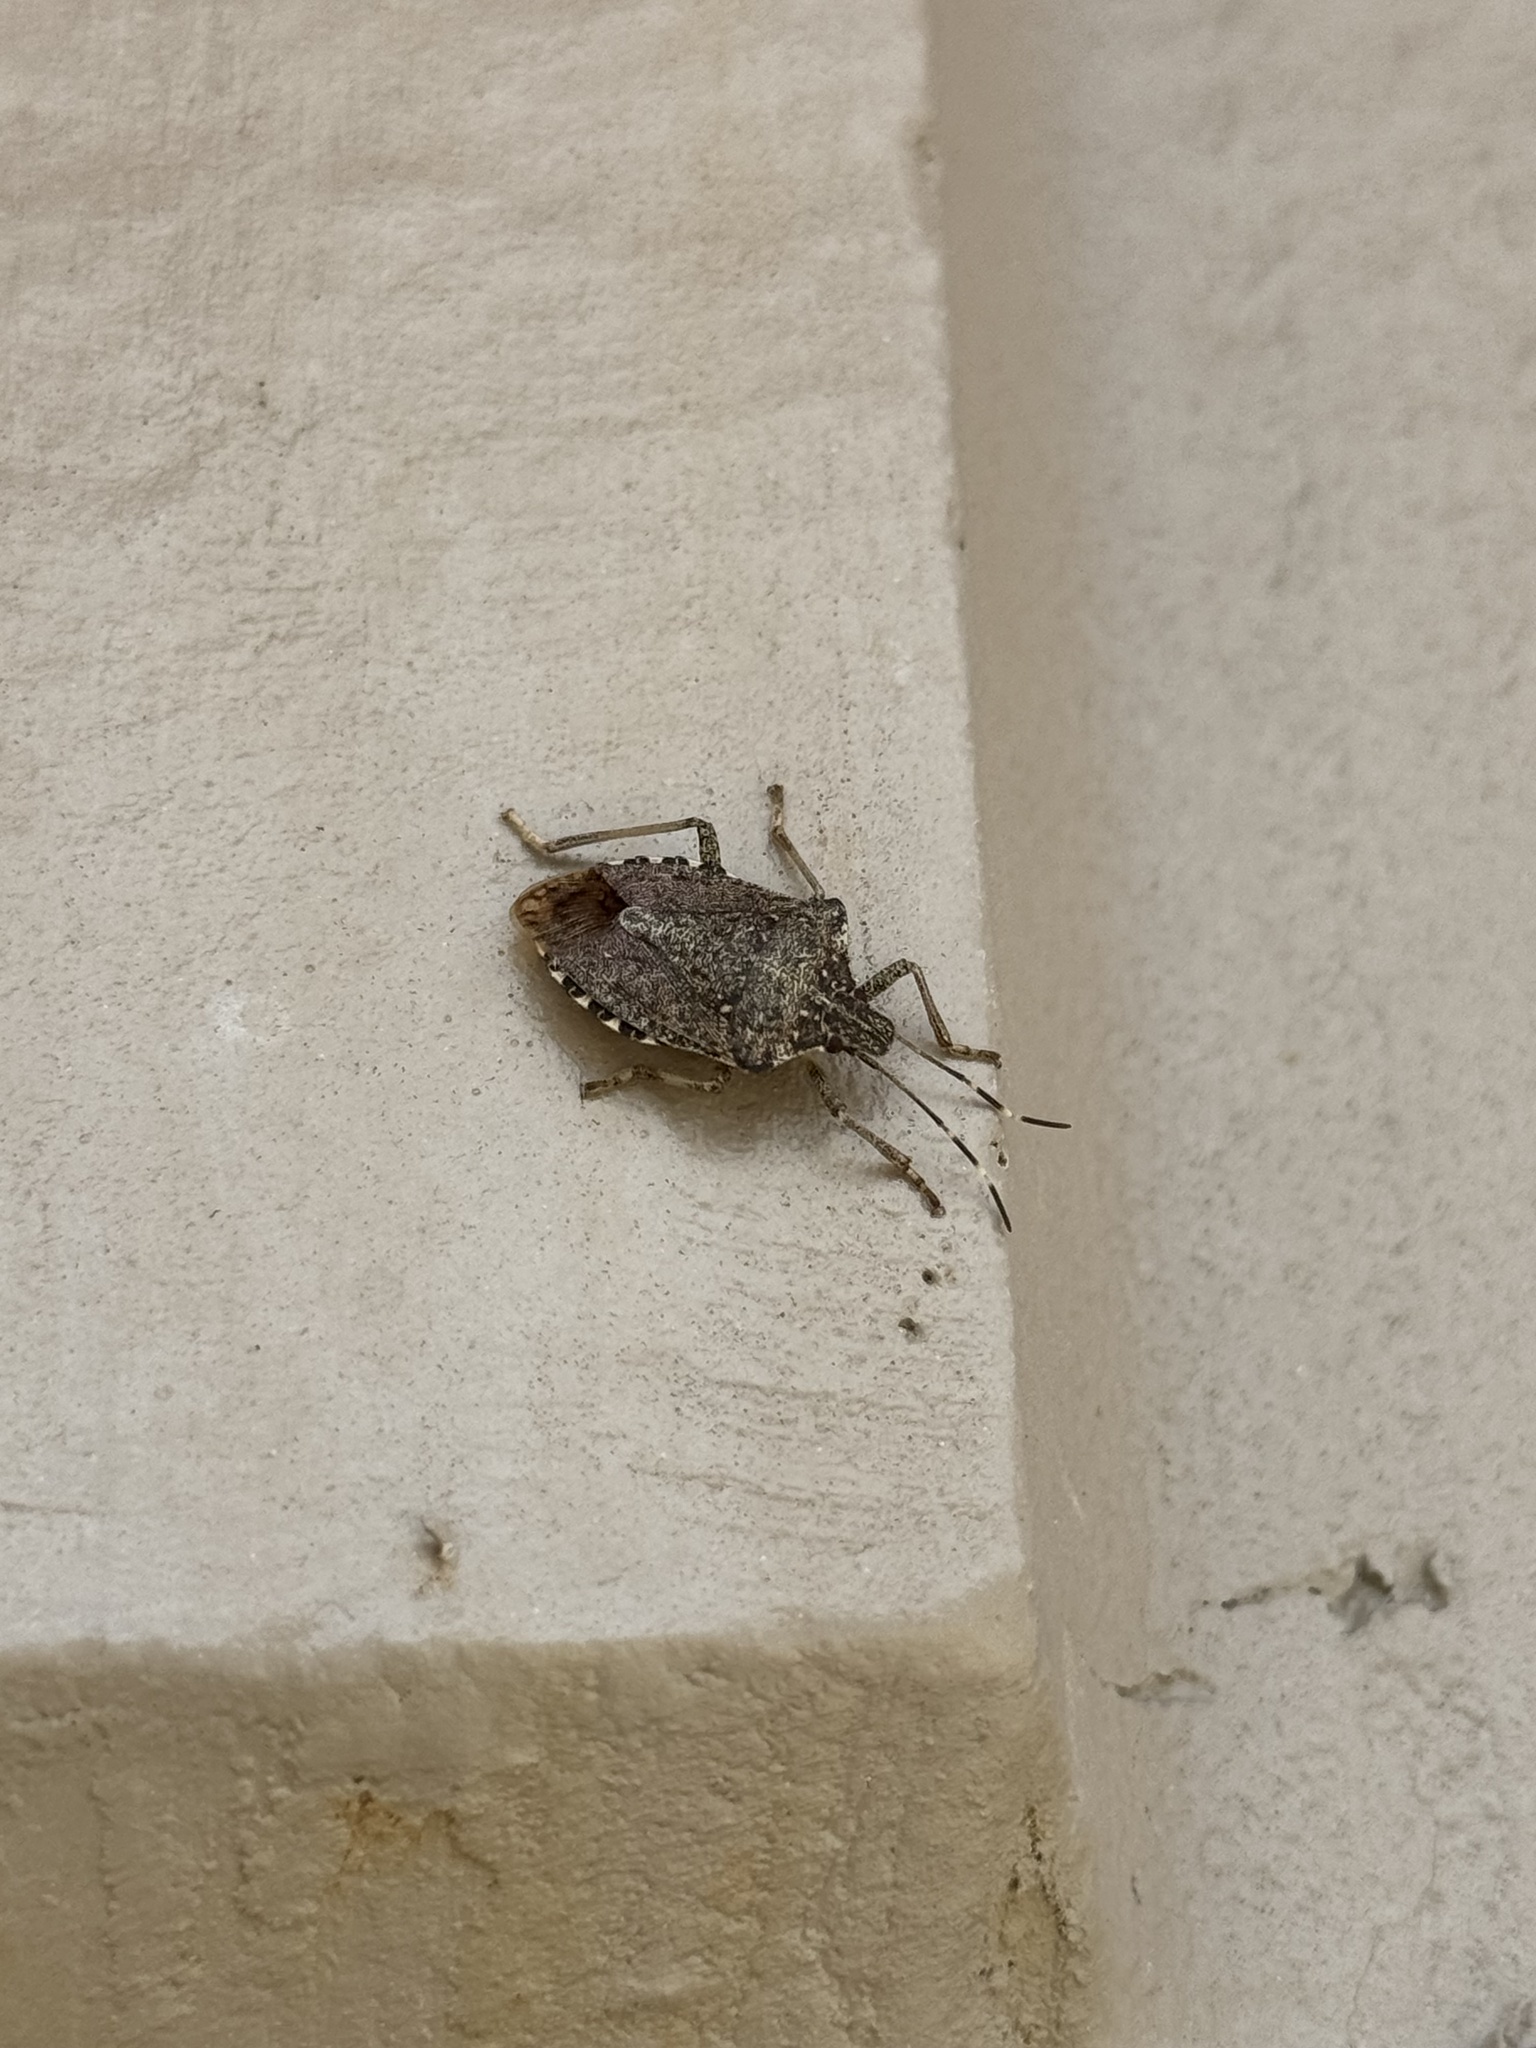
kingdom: Animalia
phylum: Arthropoda
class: Insecta
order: Hemiptera
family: Pentatomidae
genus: Halyomorpha
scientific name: Halyomorpha halys
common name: Brown marmorated stink bug
